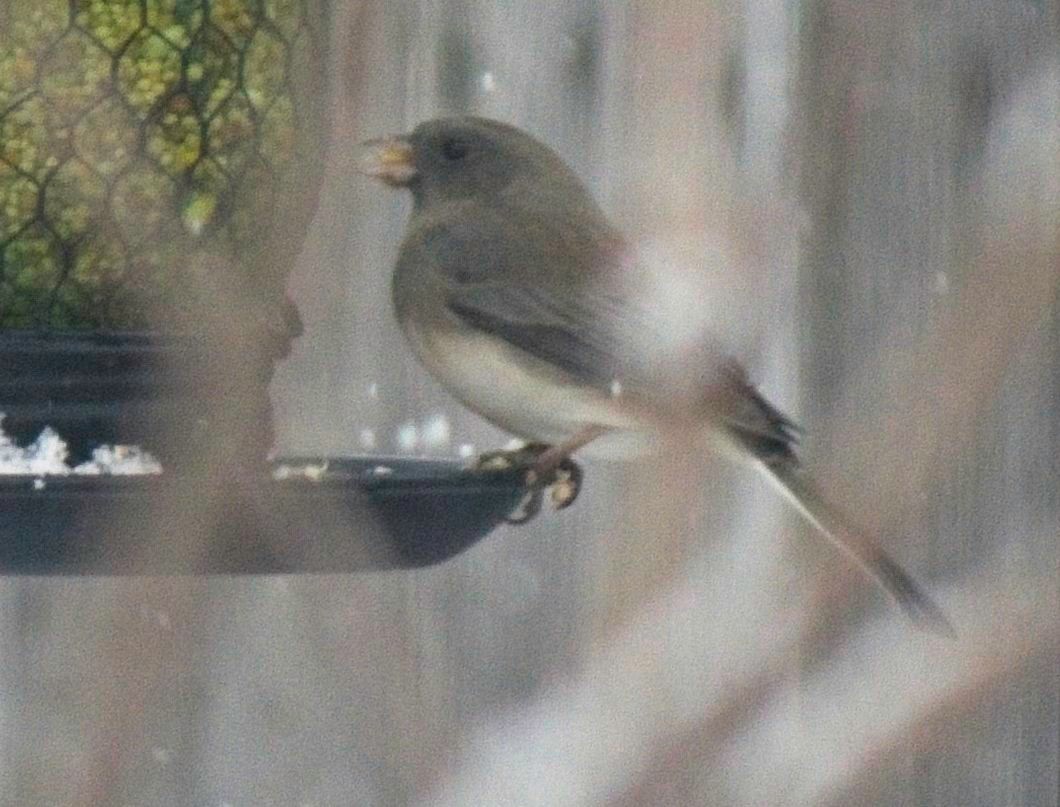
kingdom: Animalia
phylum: Chordata
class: Aves
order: Passeriformes
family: Passerellidae
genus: Junco
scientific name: Junco hyemalis
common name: Dark-eyed junco
